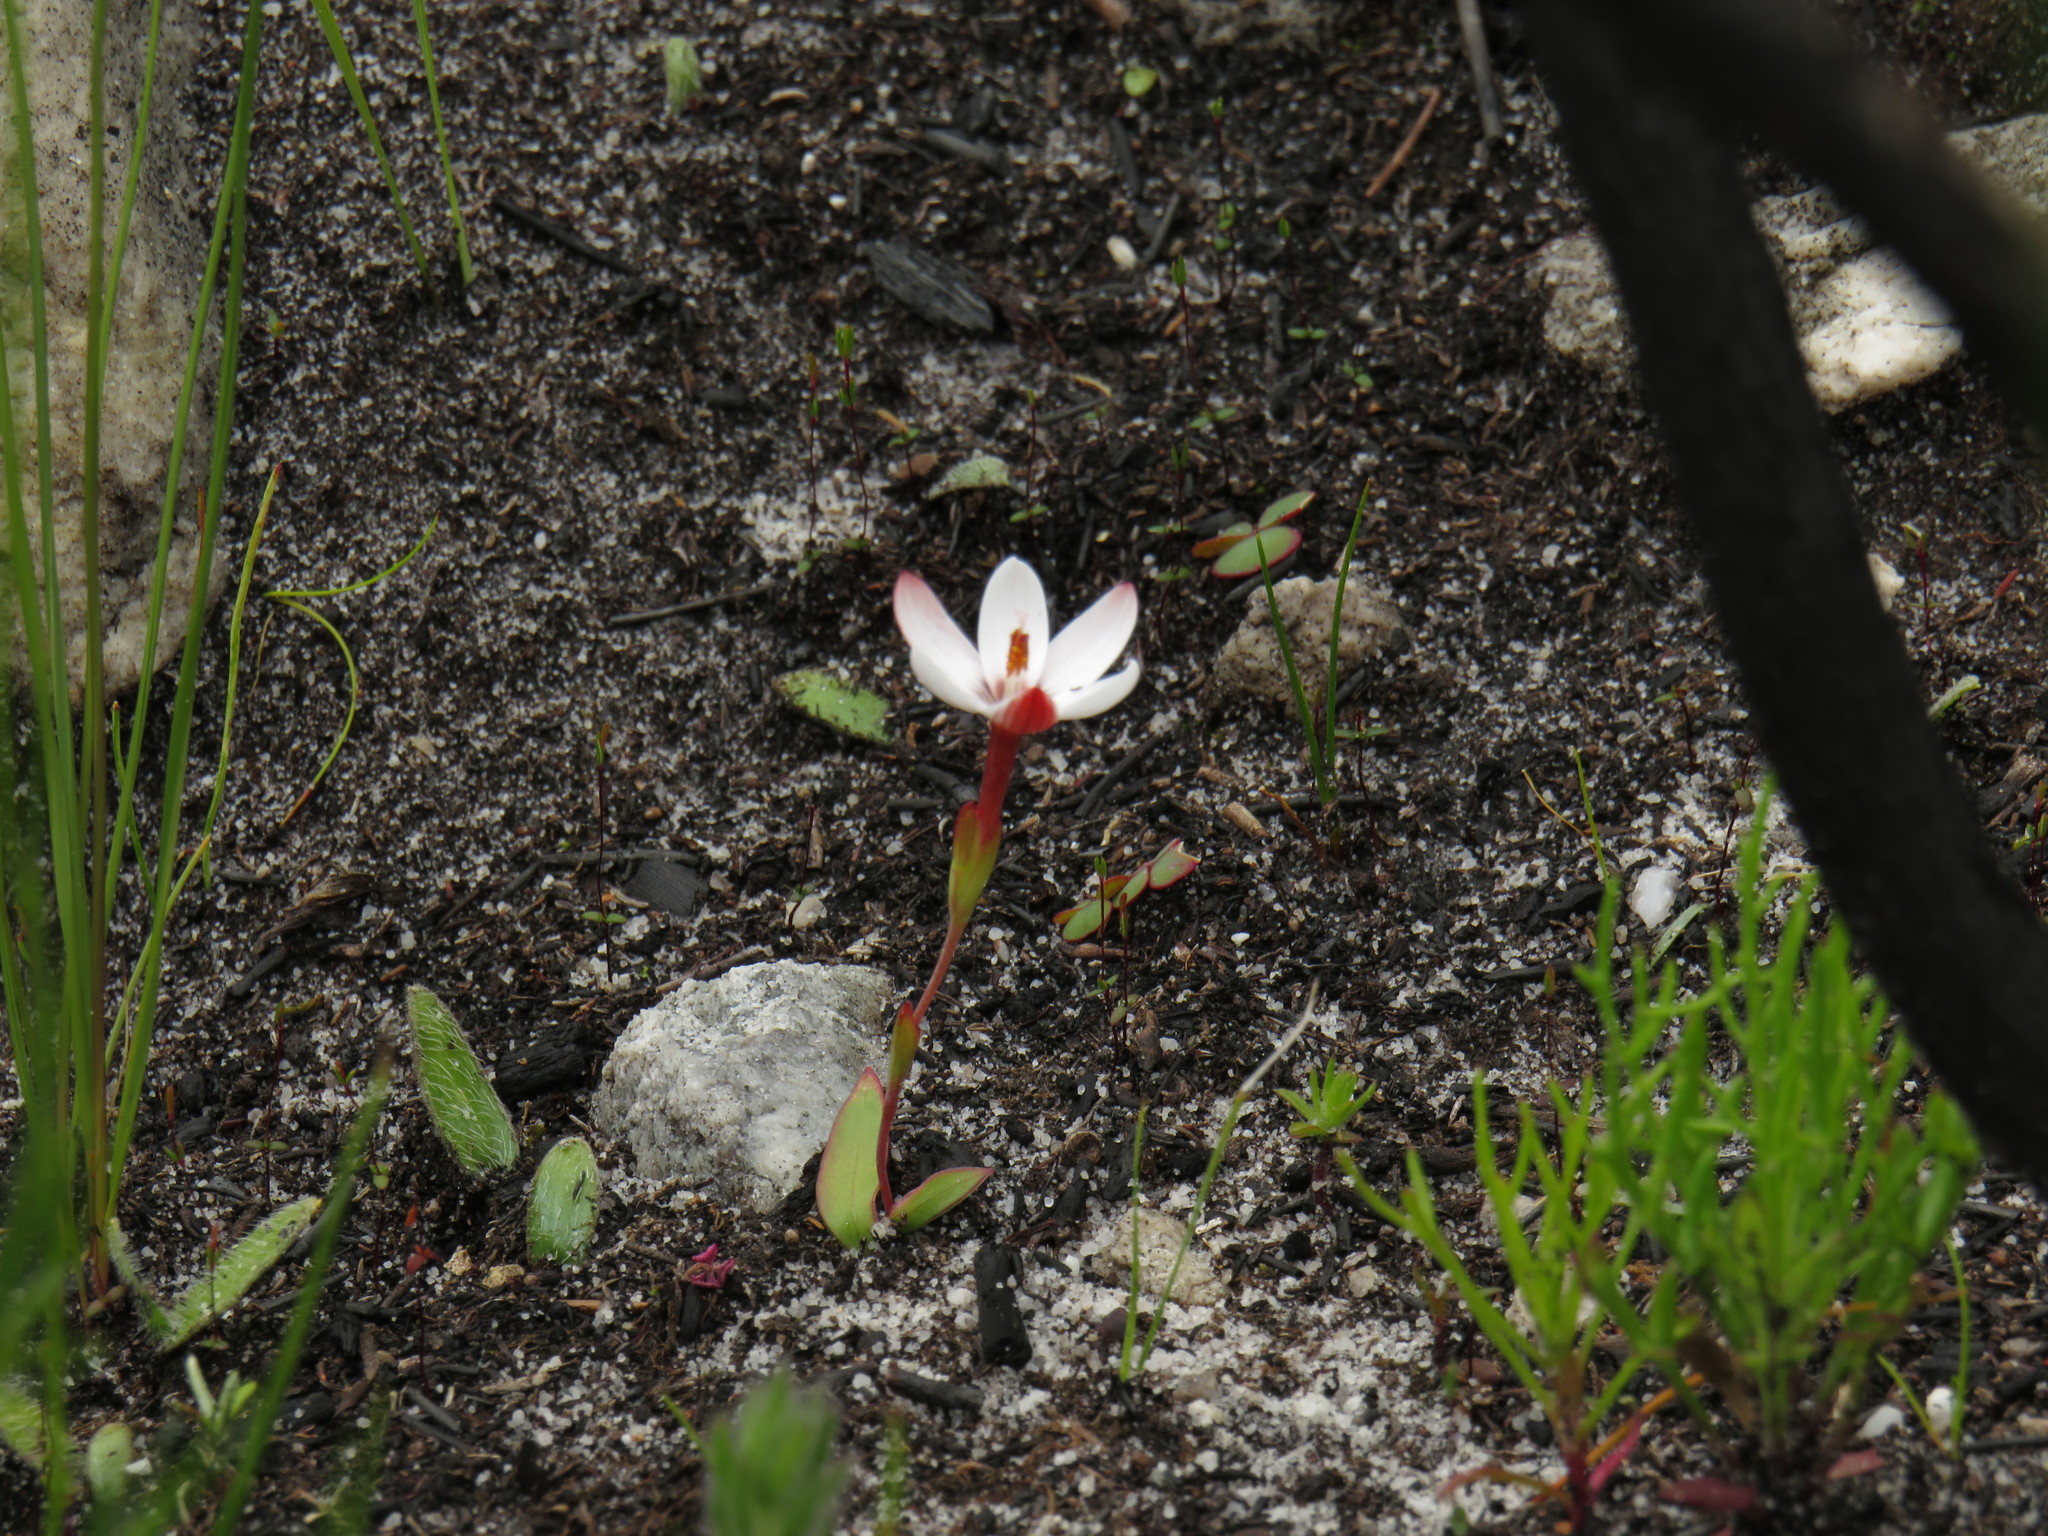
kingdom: Plantae
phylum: Tracheophyta
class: Liliopsida
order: Asparagales
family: Iridaceae
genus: Geissorhiza
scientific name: Geissorhiza ovata
